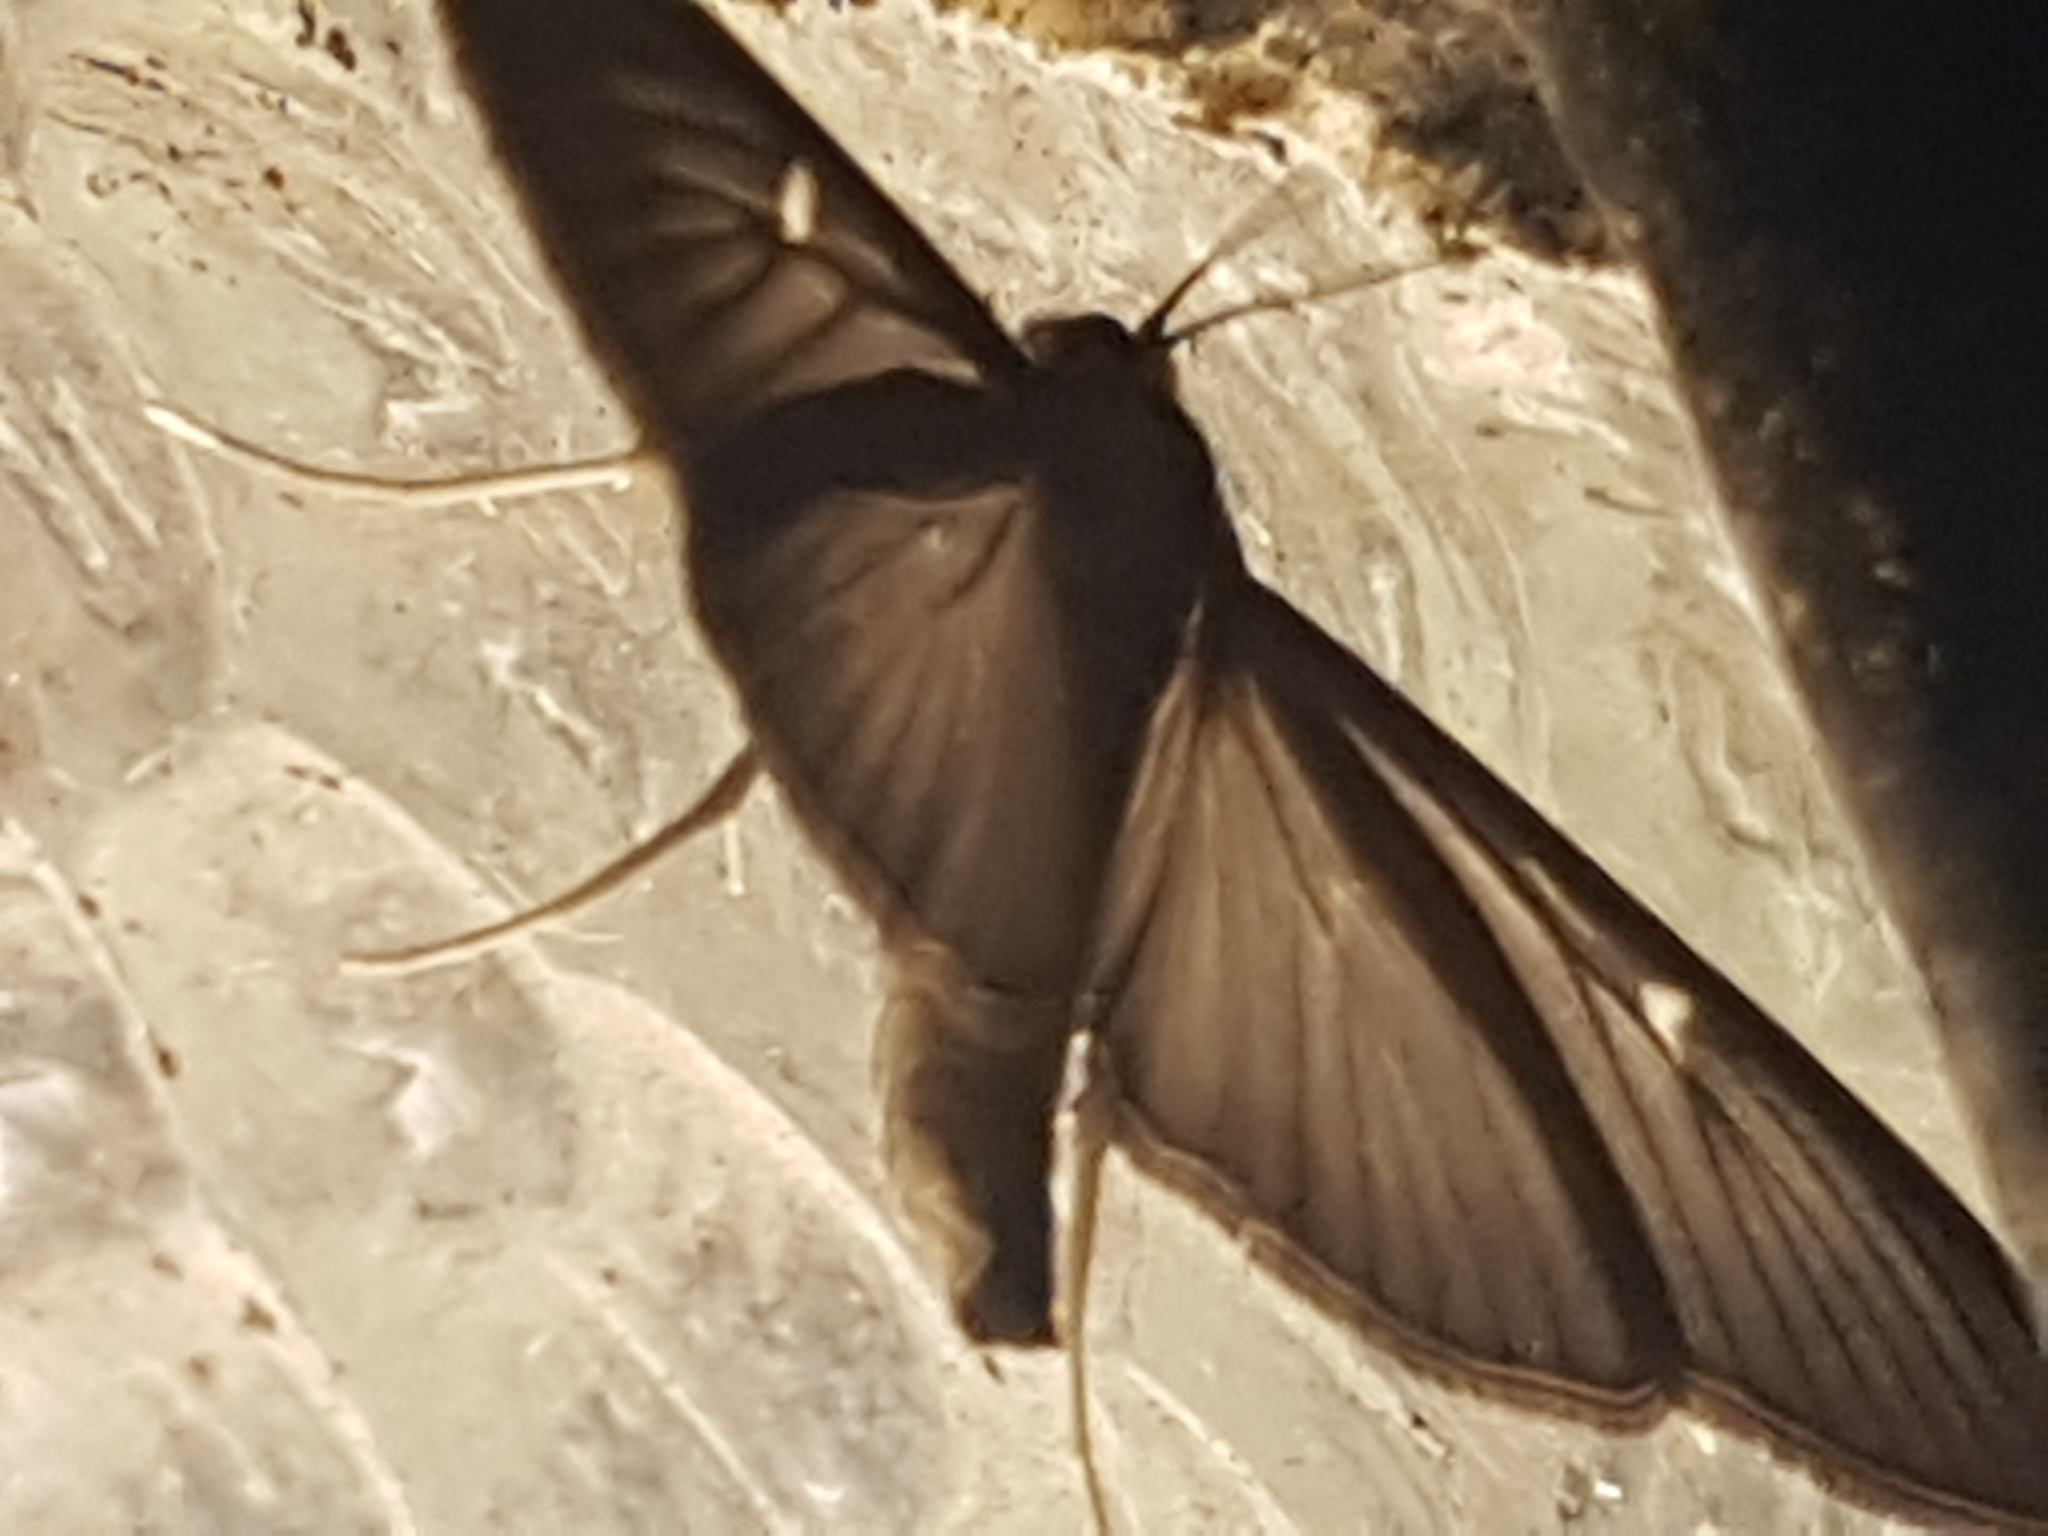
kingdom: Animalia
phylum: Arthropoda
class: Insecta
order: Lepidoptera
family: Crambidae
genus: Cydalima
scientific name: Cydalima perspectalis
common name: Box tree moth
